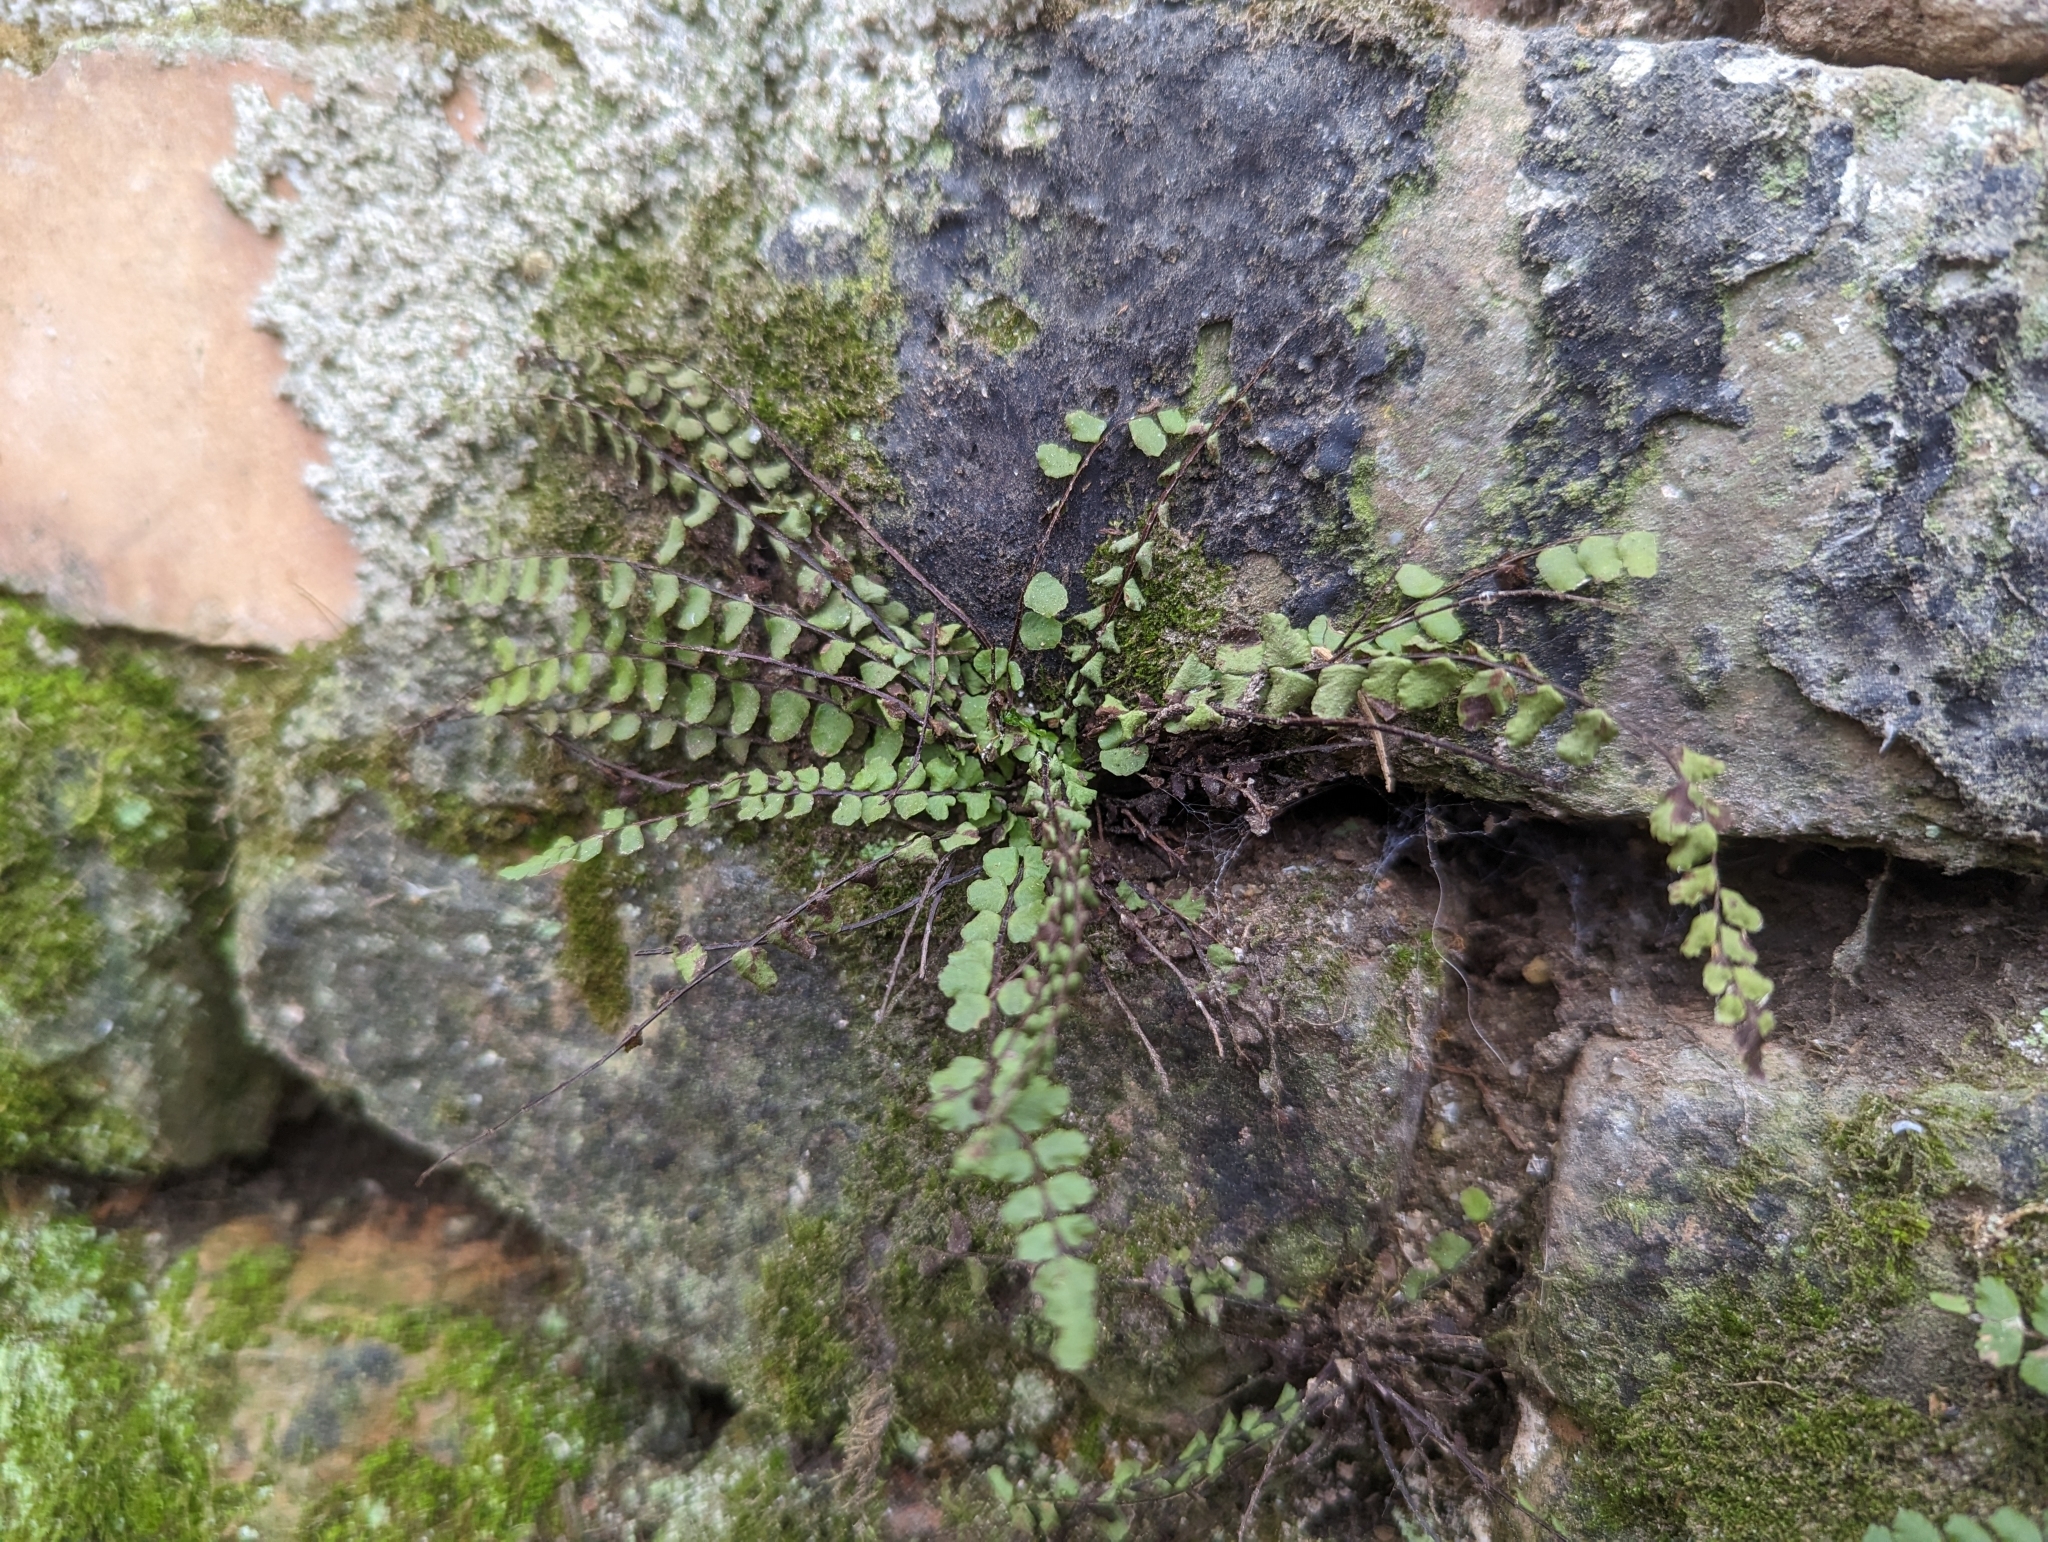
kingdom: Plantae
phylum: Tracheophyta
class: Polypodiopsida
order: Polypodiales
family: Aspleniaceae
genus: Asplenium
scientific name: Asplenium trichomanes
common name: Maidenhair spleenwort
